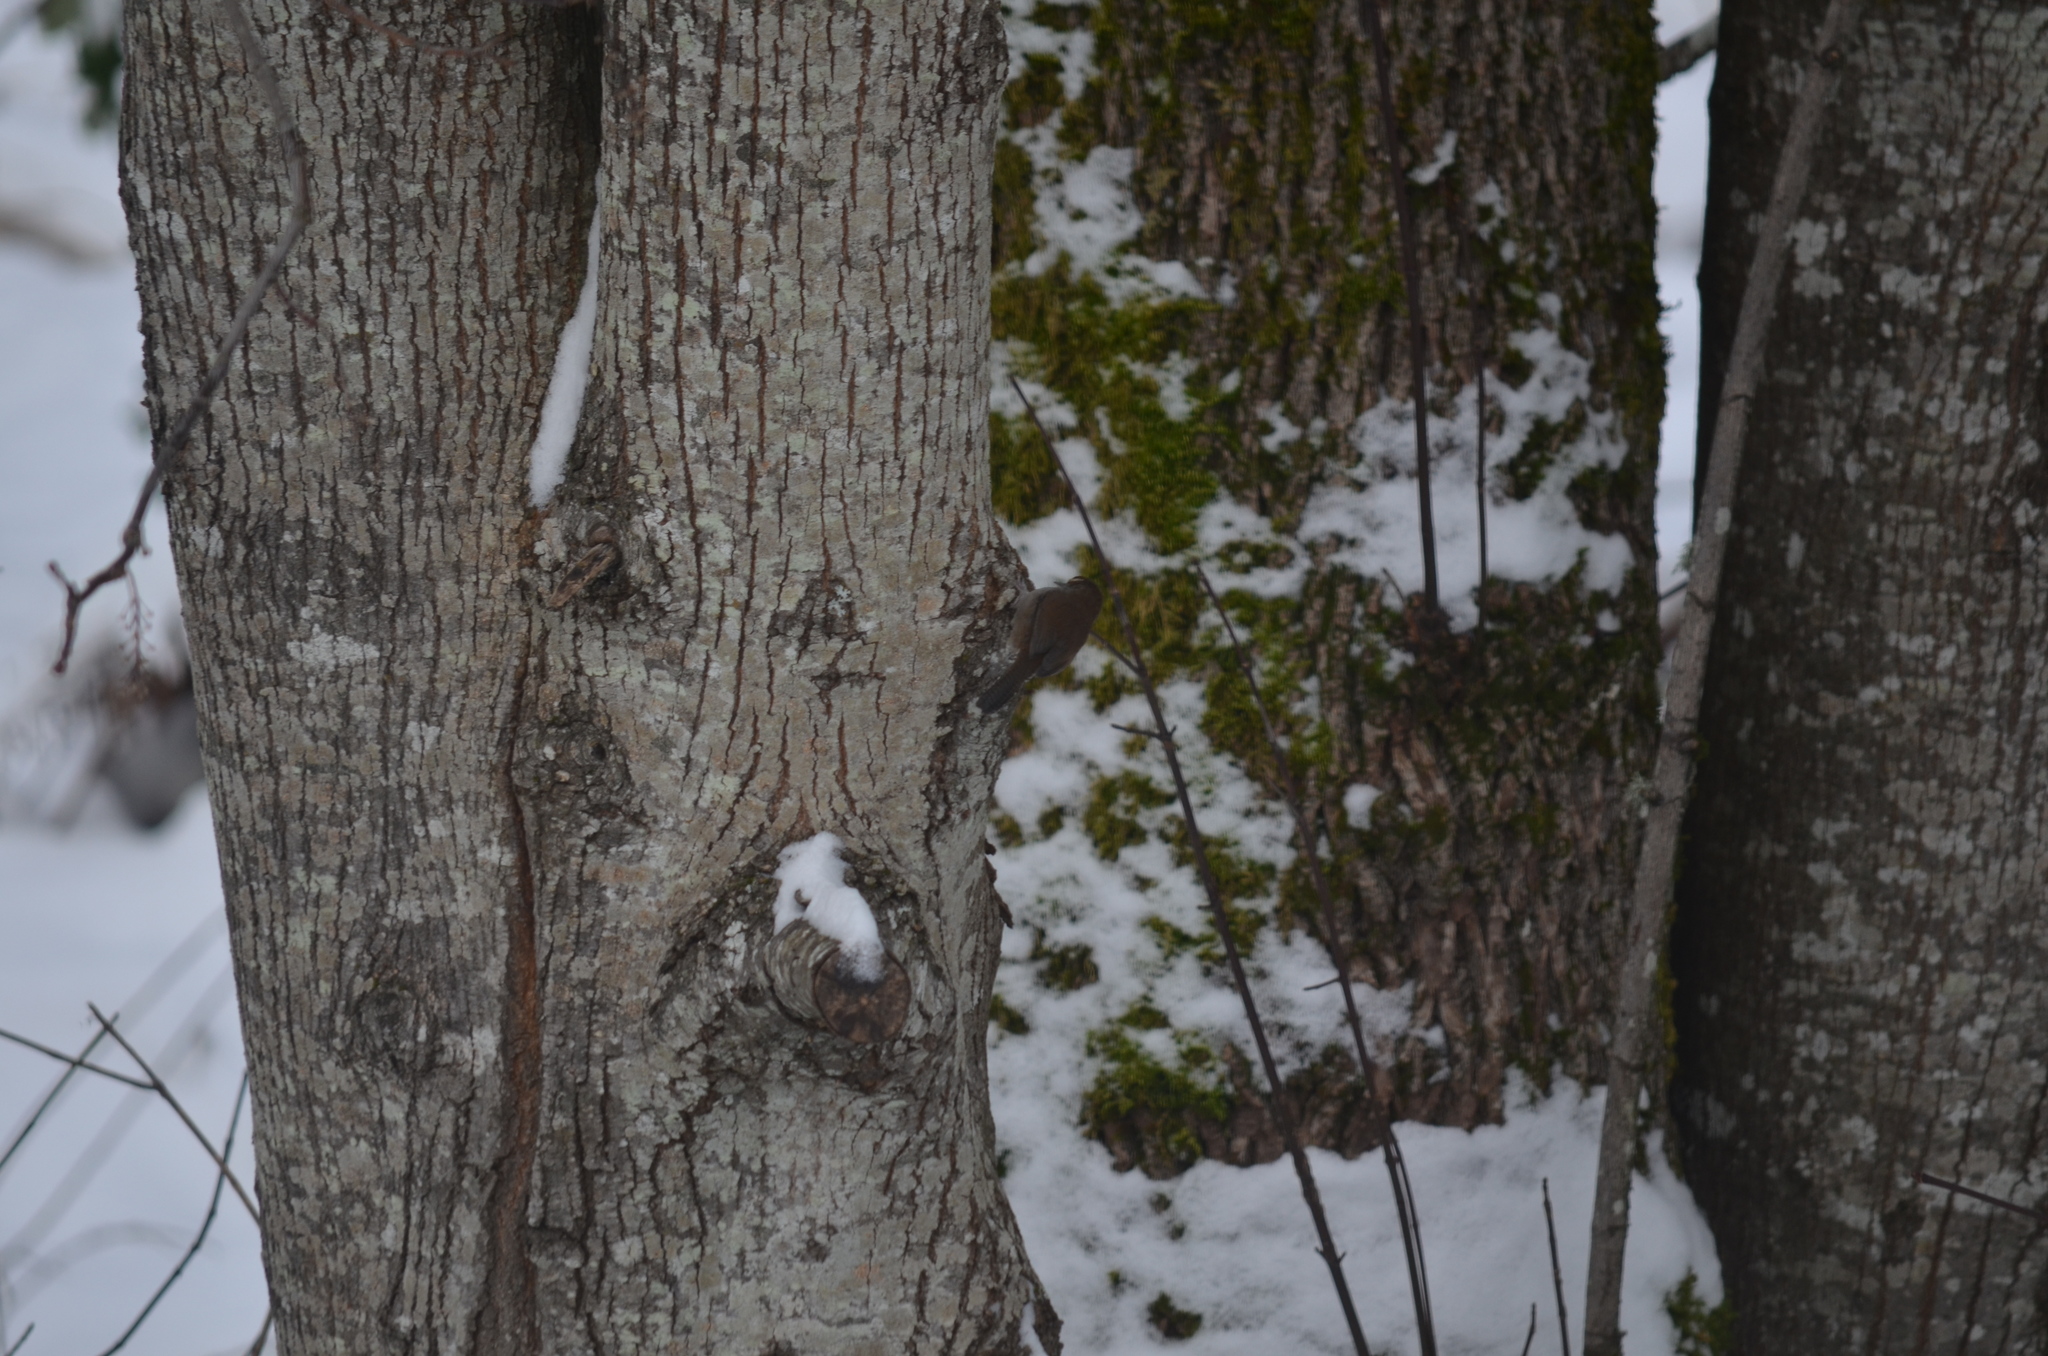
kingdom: Animalia
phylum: Chordata
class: Aves
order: Passeriformes
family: Troglodytidae
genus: Thryomanes
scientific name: Thryomanes bewickii
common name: Bewick's wren
